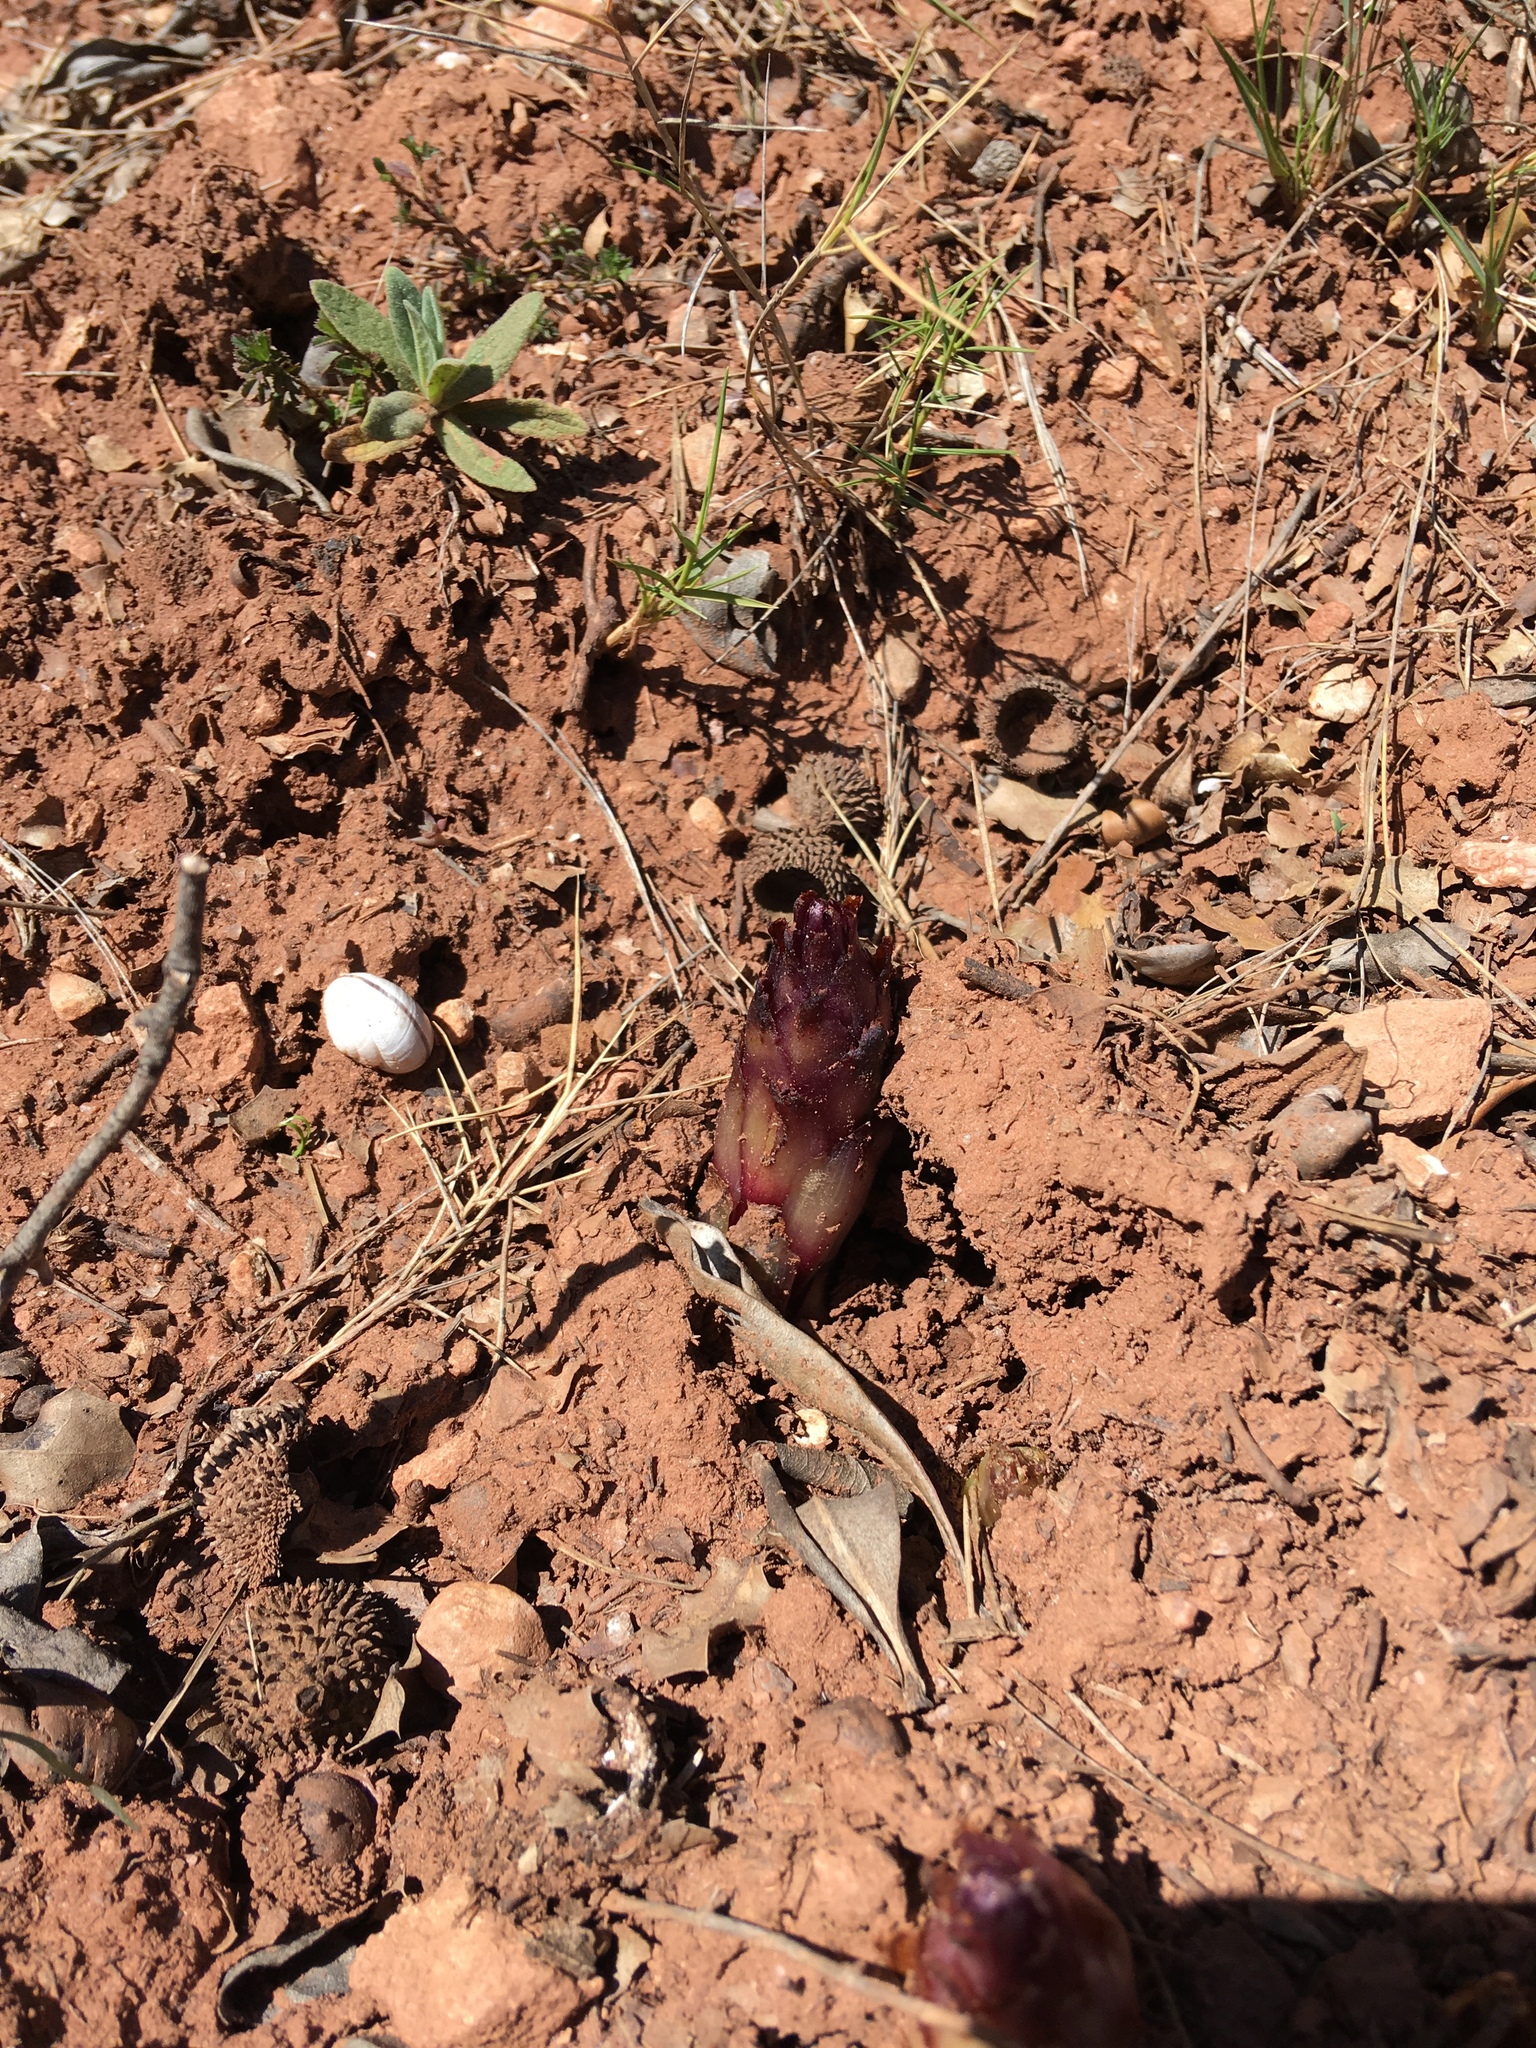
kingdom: Plantae
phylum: Tracheophyta
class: Magnoliopsida
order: Lamiales
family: Orobanchaceae
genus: Boulardia
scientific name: Boulardia latisquama
